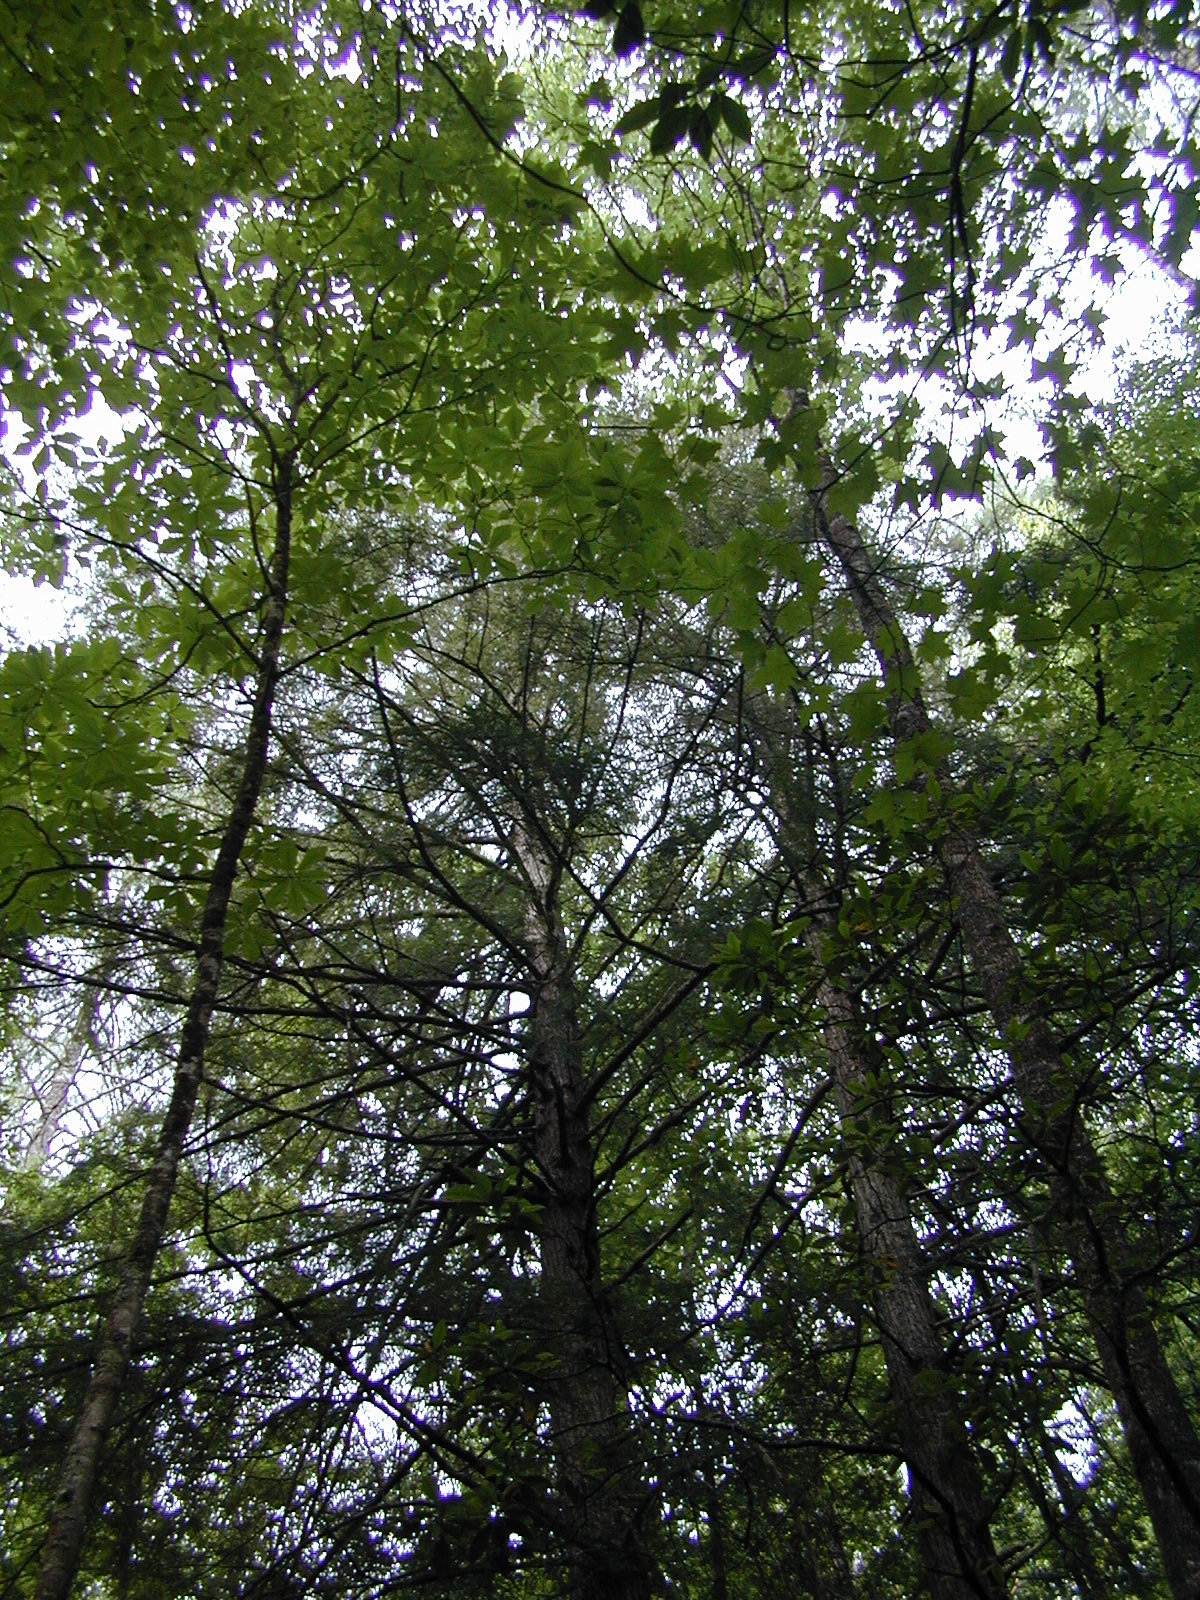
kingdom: Plantae
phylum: Tracheophyta
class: Pinopsida
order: Pinales
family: Pinaceae
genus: Tsuga
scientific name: Tsuga canadensis
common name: Eastern hemlock
